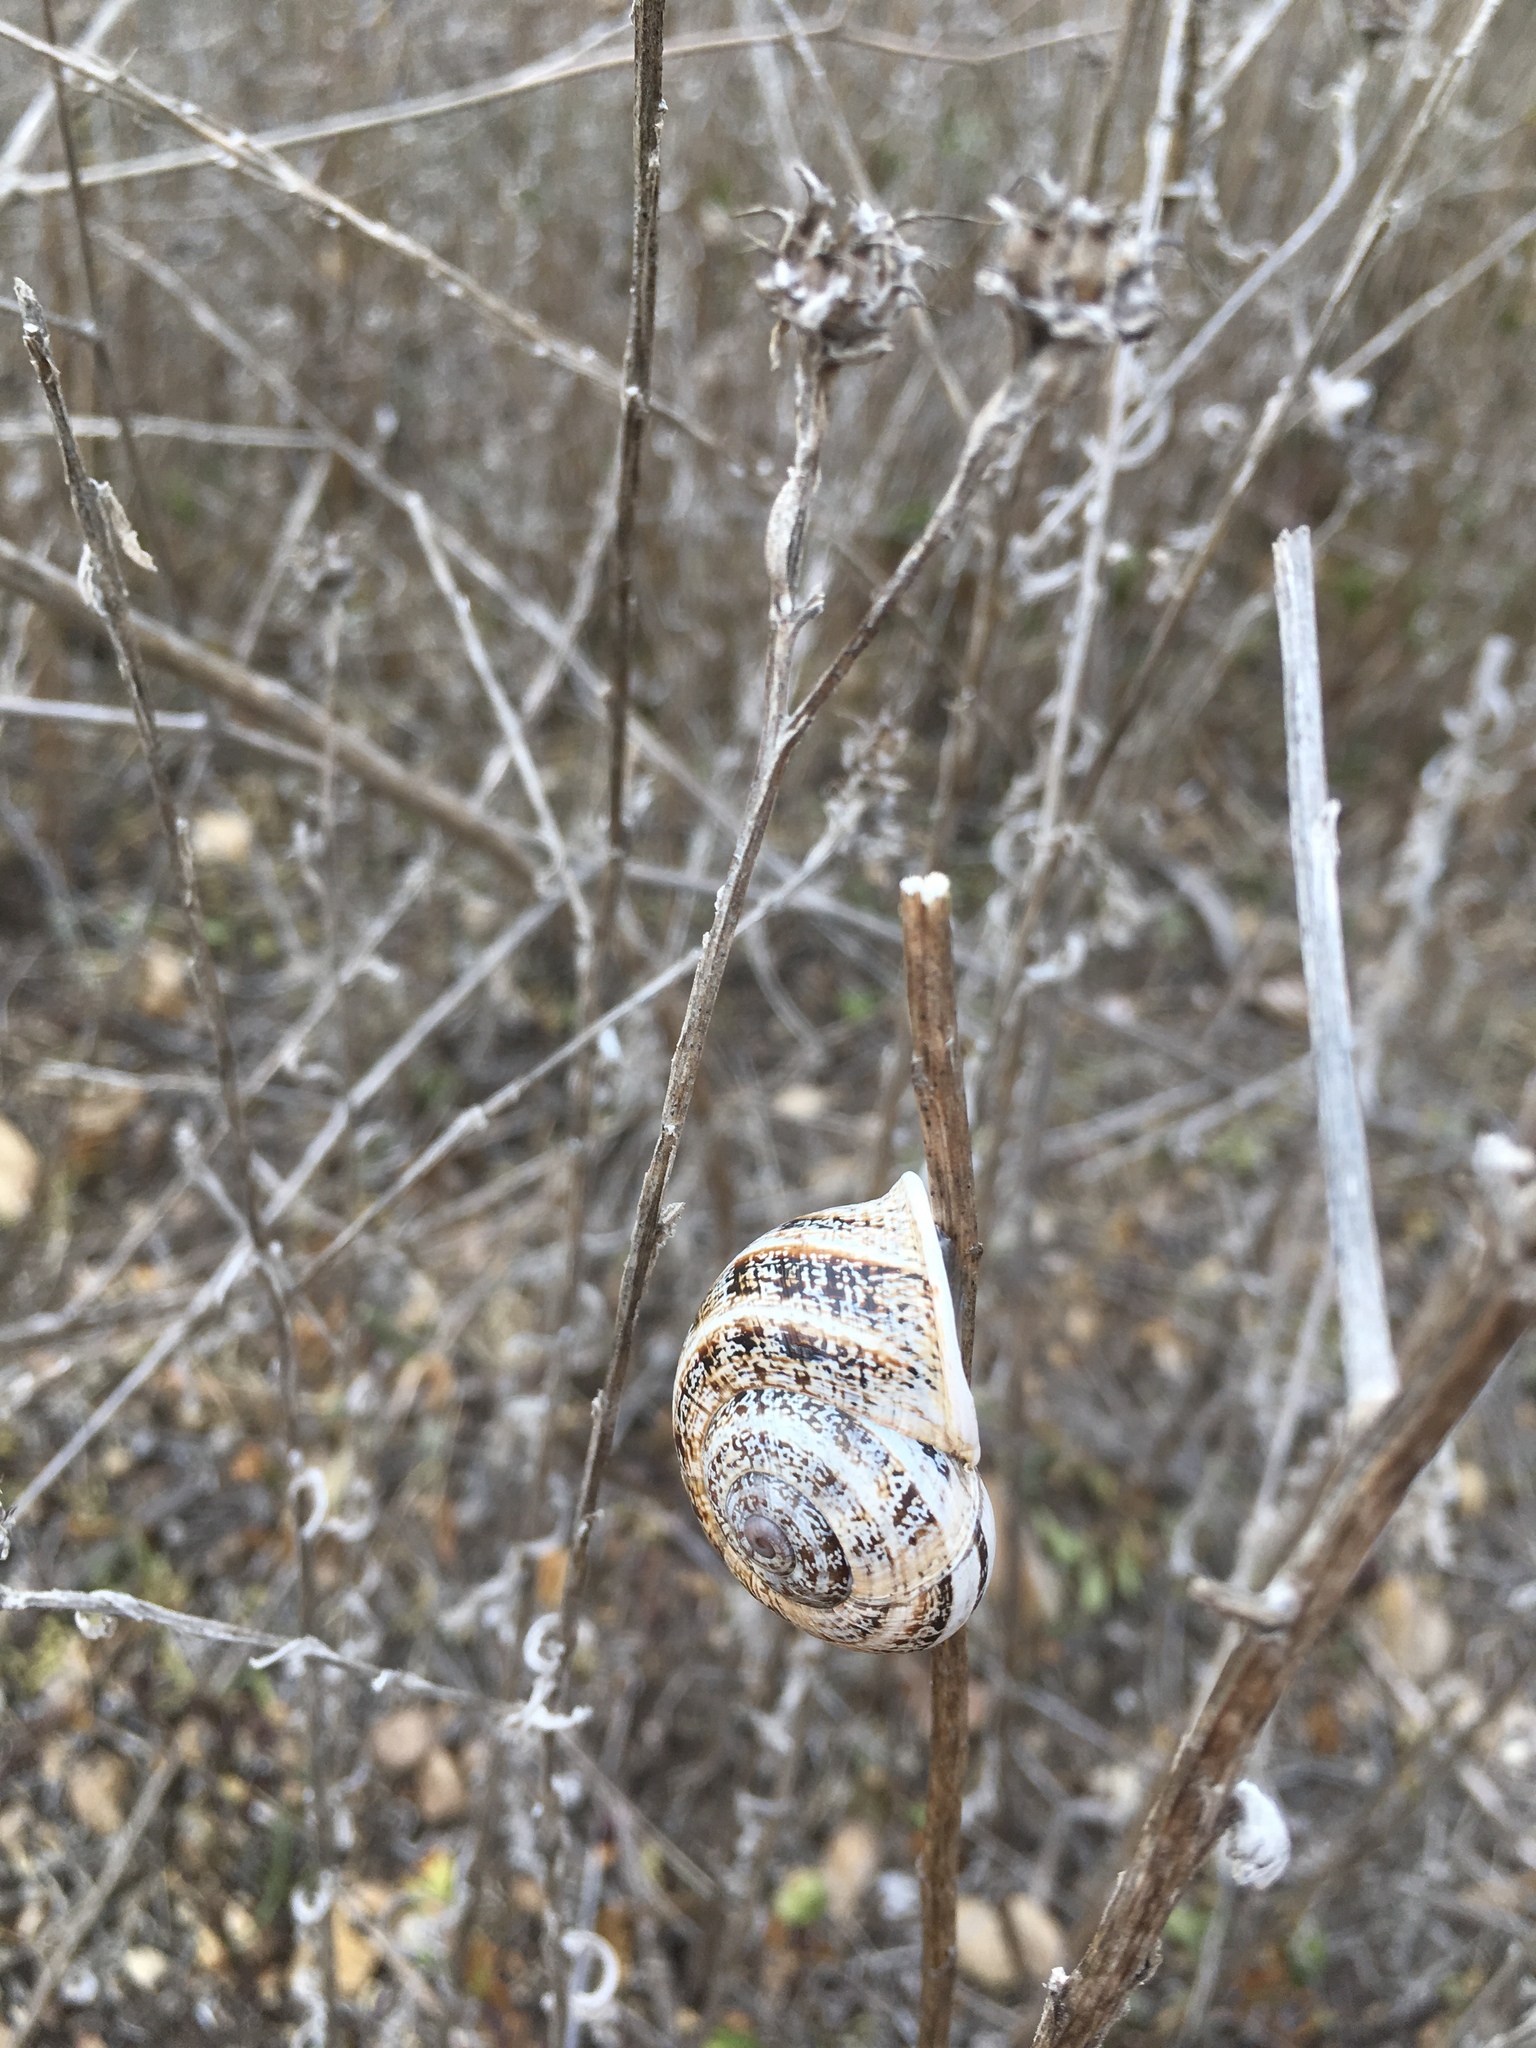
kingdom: Animalia
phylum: Mollusca
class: Gastropoda
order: Stylommatophora
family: Helicidae
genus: Otala
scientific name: Otala lactea
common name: Milk snail
